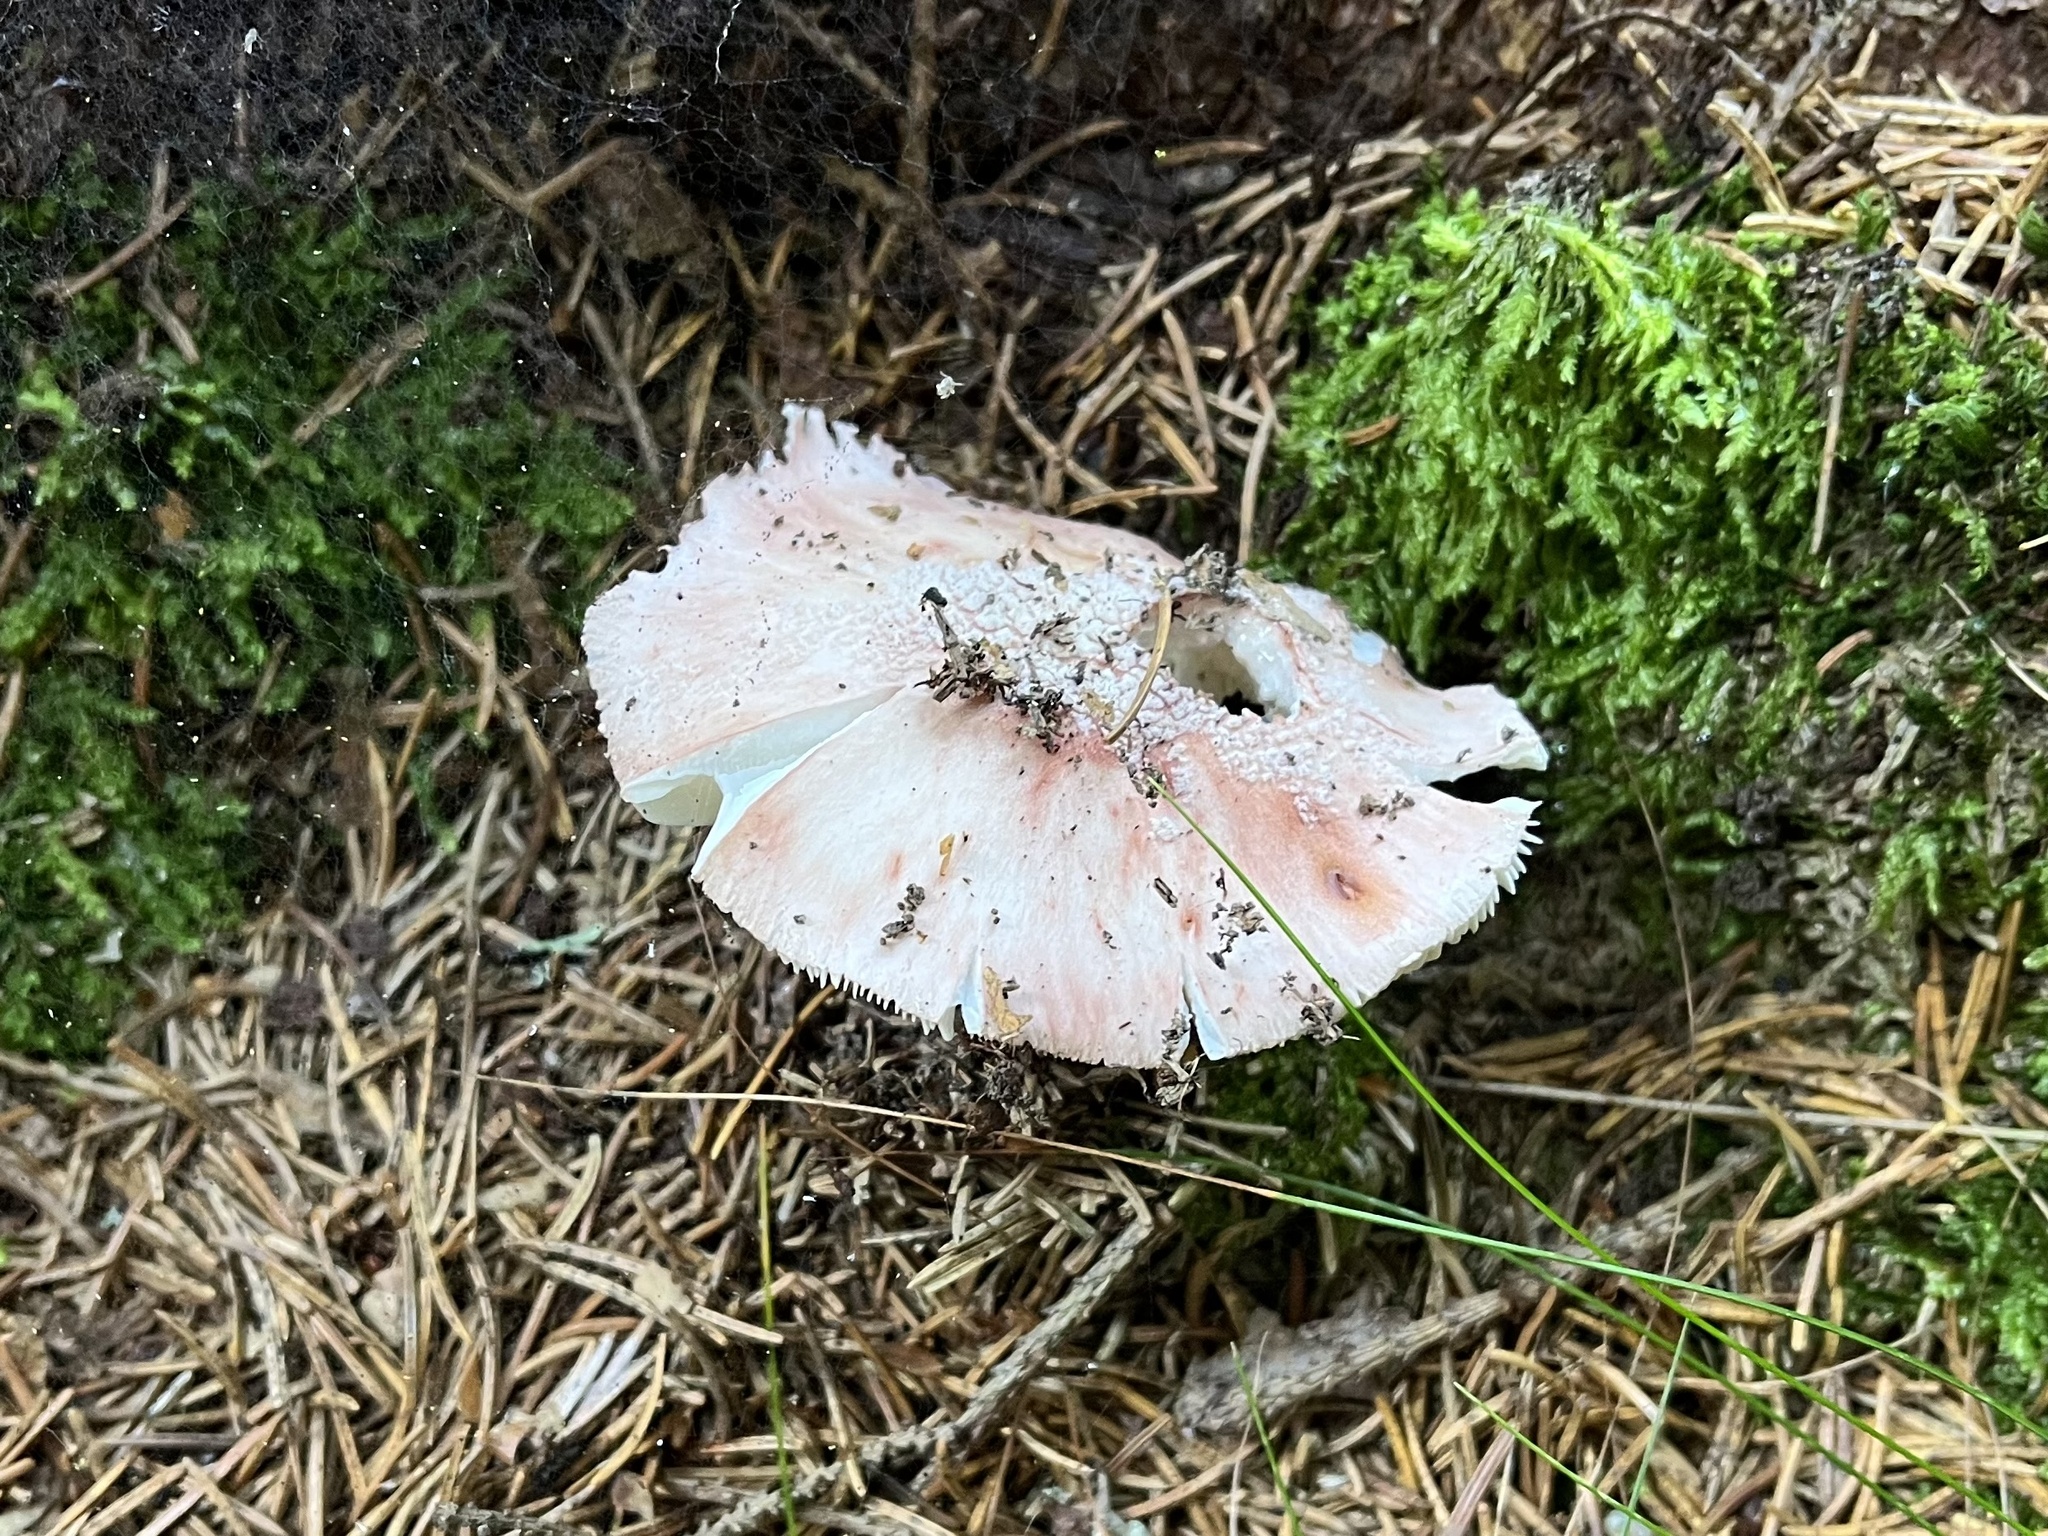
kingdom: Fungi
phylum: Basidiomycota
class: Agaricomycetes
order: Agaricales
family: Amanitaceae
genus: Amanita
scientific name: Amanita rubescens
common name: Blusher
